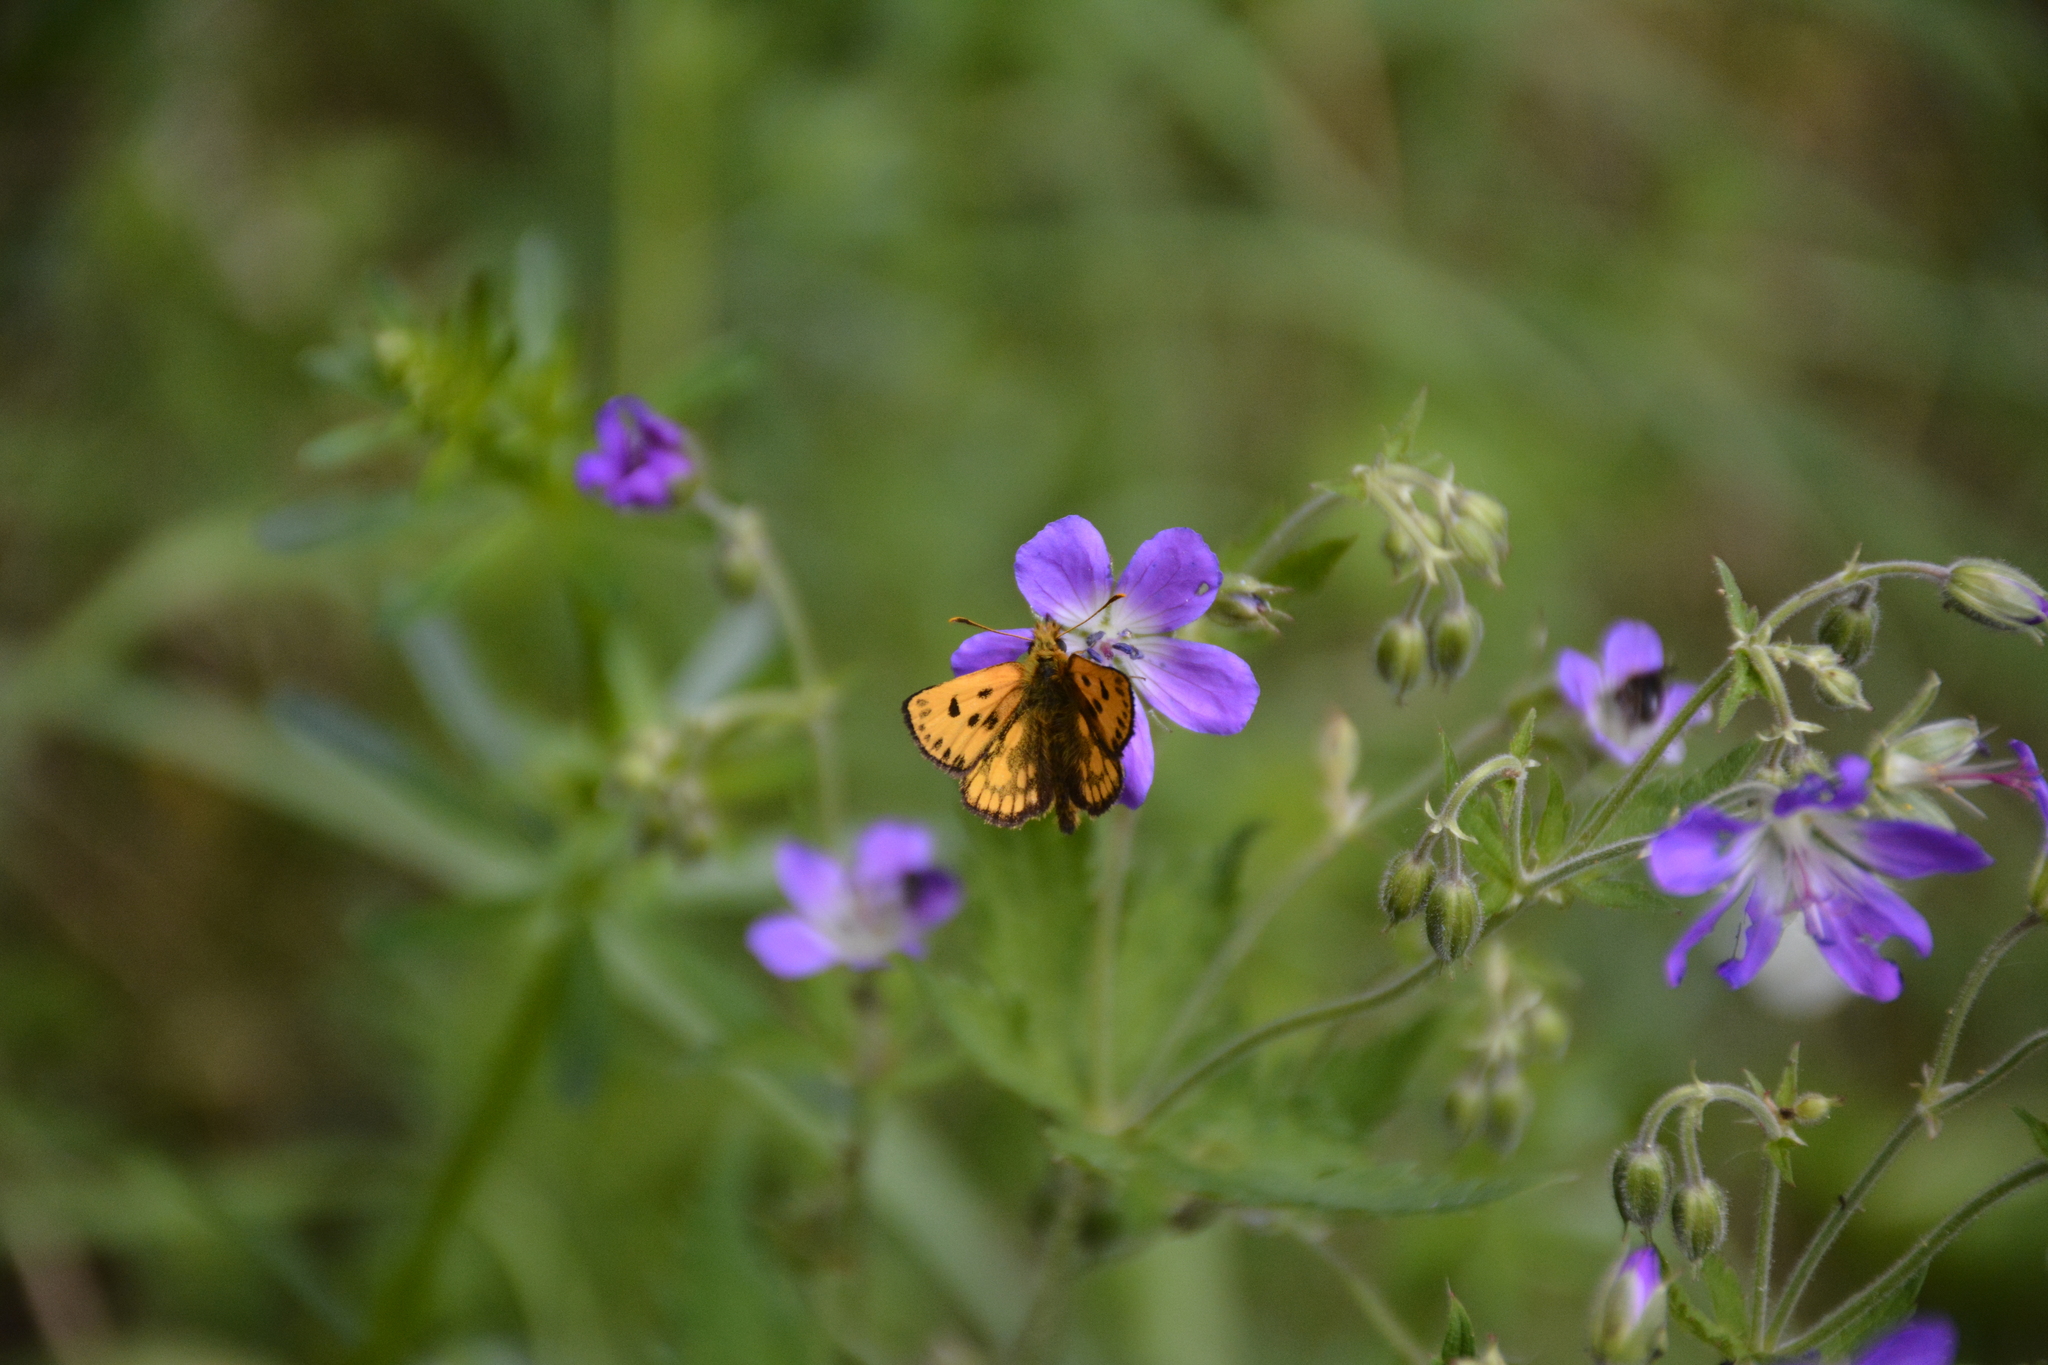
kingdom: Animalia
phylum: Arthropoda
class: Insecta
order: Lepidoptera
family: Hesperiidae
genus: Carterocephalus
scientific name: Carterocephalus silvicola
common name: Northern chequered skipper
